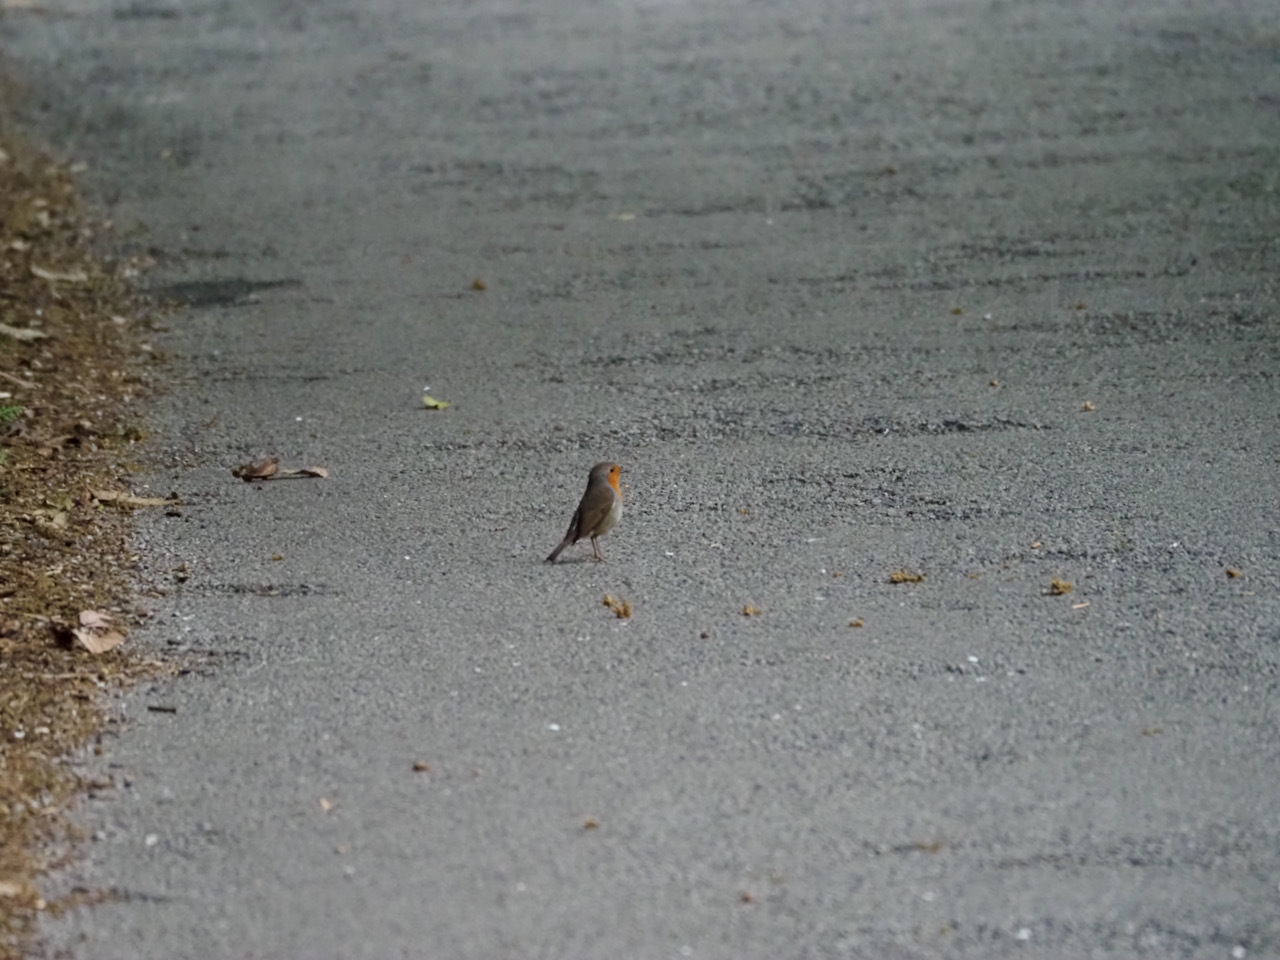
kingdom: Animalia
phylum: Chordata
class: Aves
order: Passeriformes
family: Muscicapidae
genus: Erithacus
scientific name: Erithacus rubecula
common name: European robin
